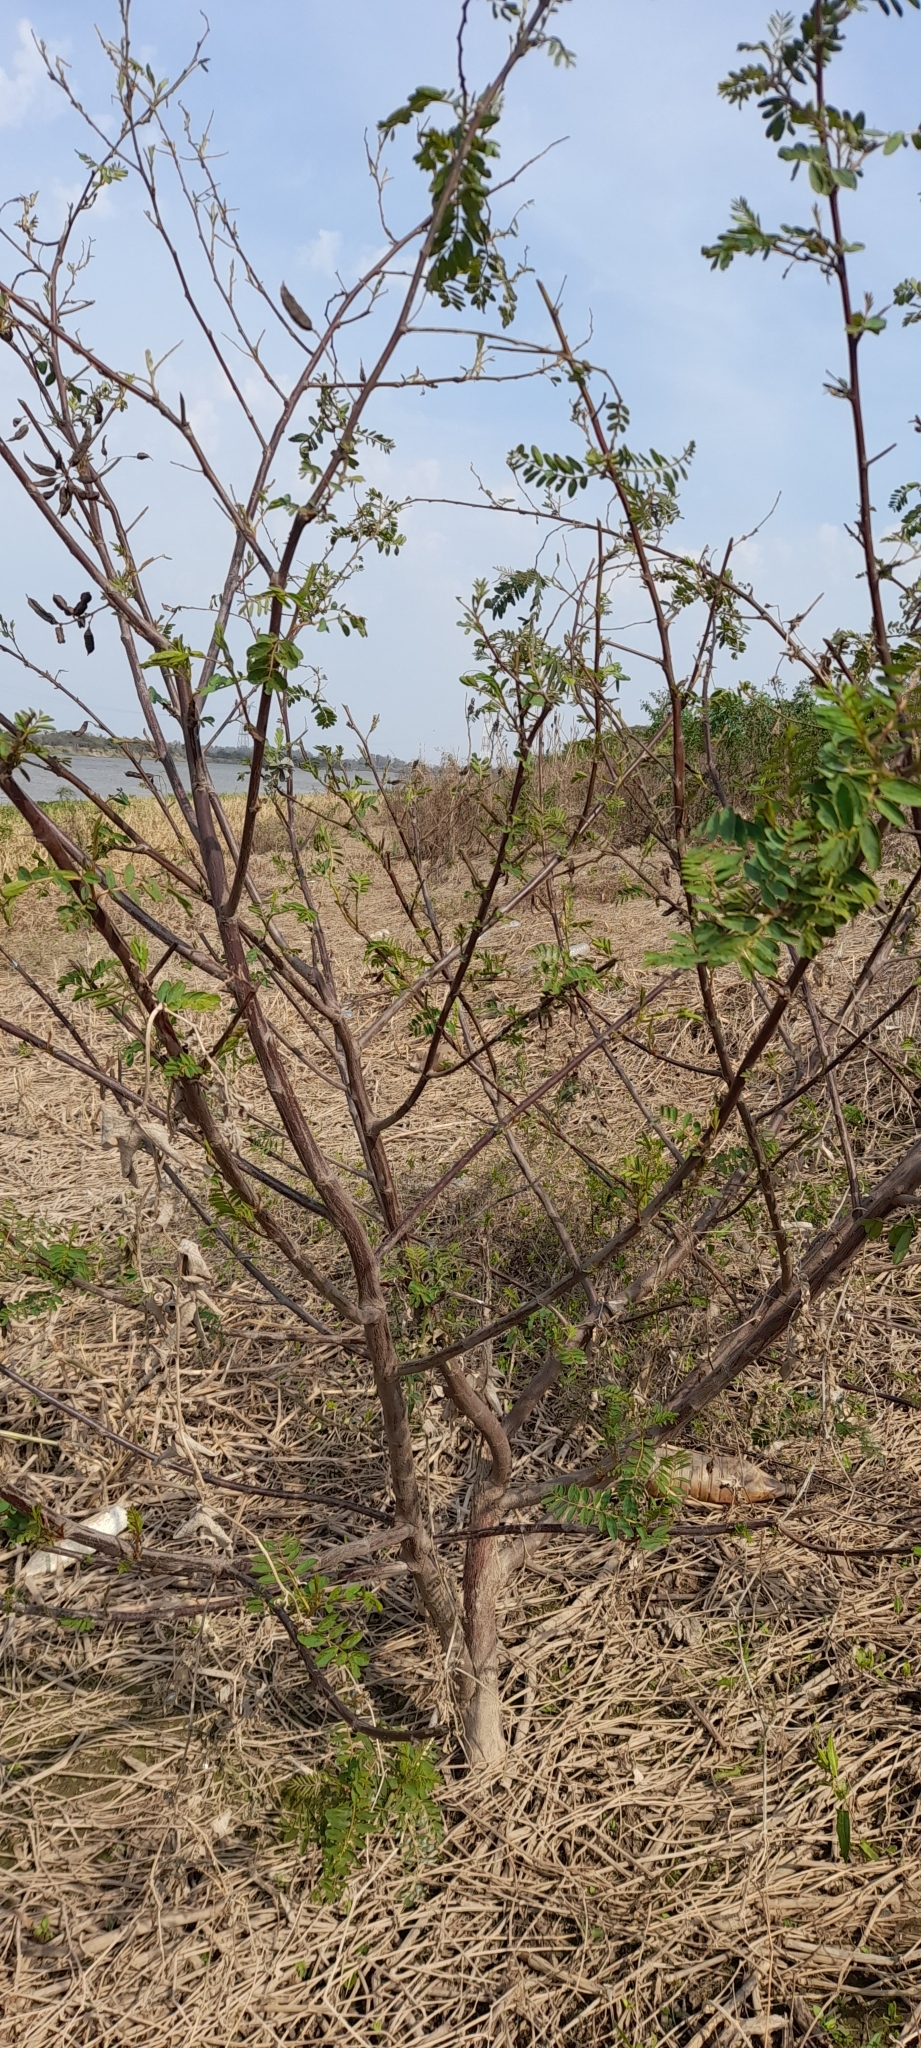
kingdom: Plantae
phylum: Tracheophyta
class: Magnoliopsida
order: Fabales
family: Fabaceae
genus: Sesbania
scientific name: Sesbania virgata
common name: Wand riverhemp
